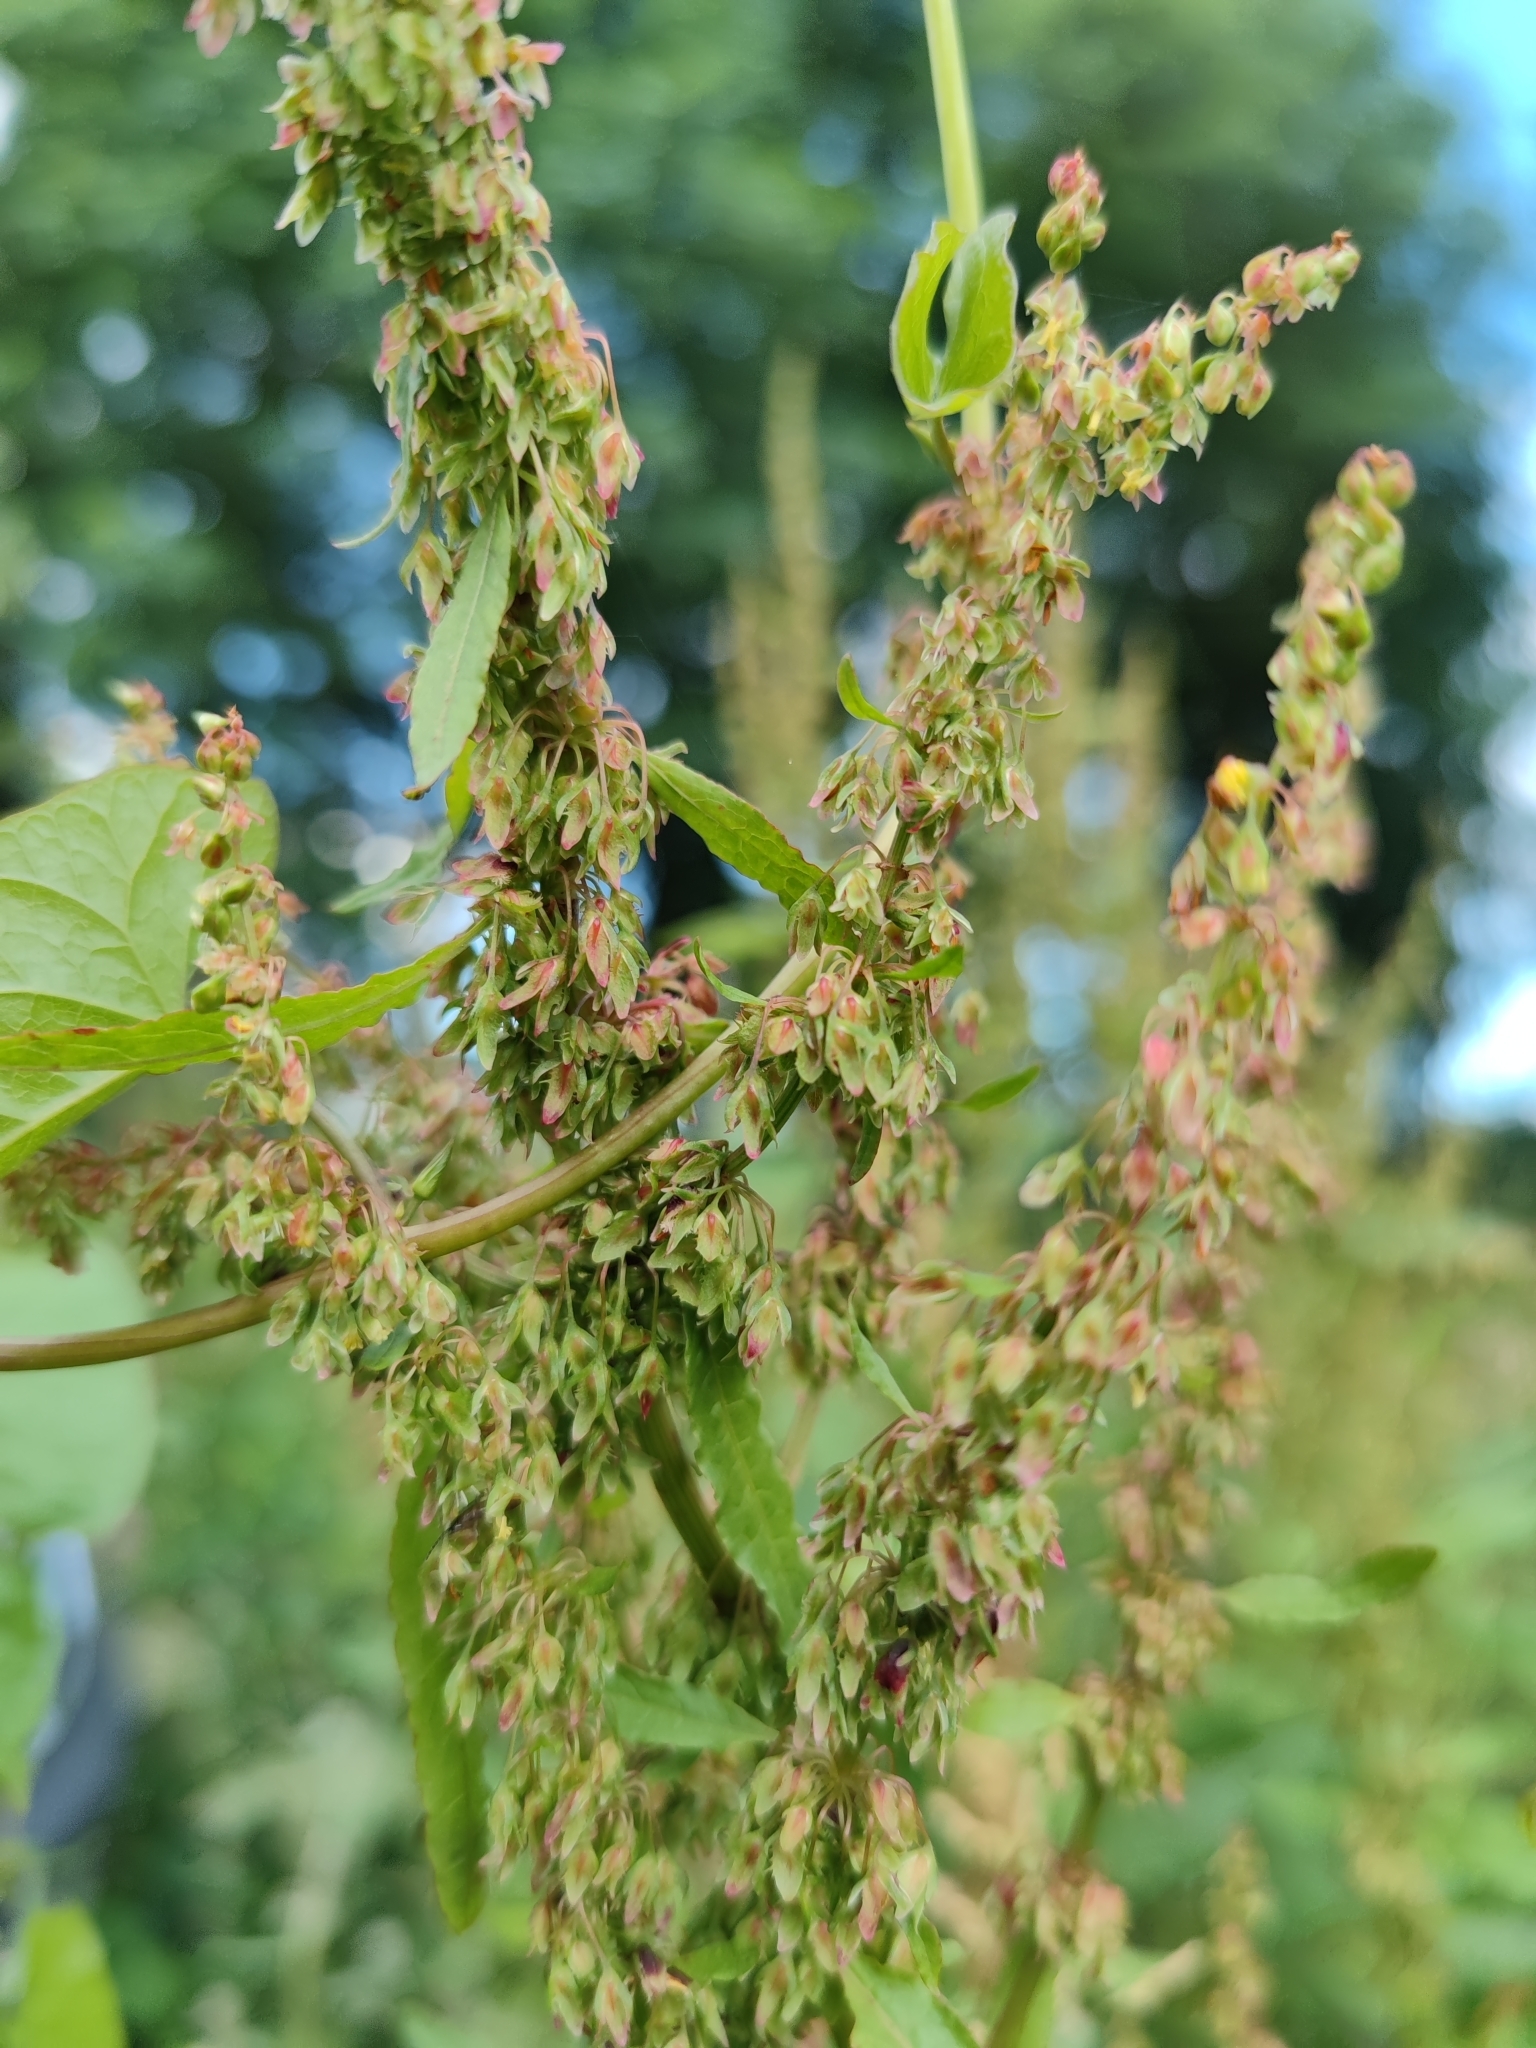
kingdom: Plantae
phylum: Tracheophyta
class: Magnoliopsida
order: Caryophyllales
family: Polygonaceae
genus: Rumex
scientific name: Rumex obtusifolius
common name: Bitter dock
